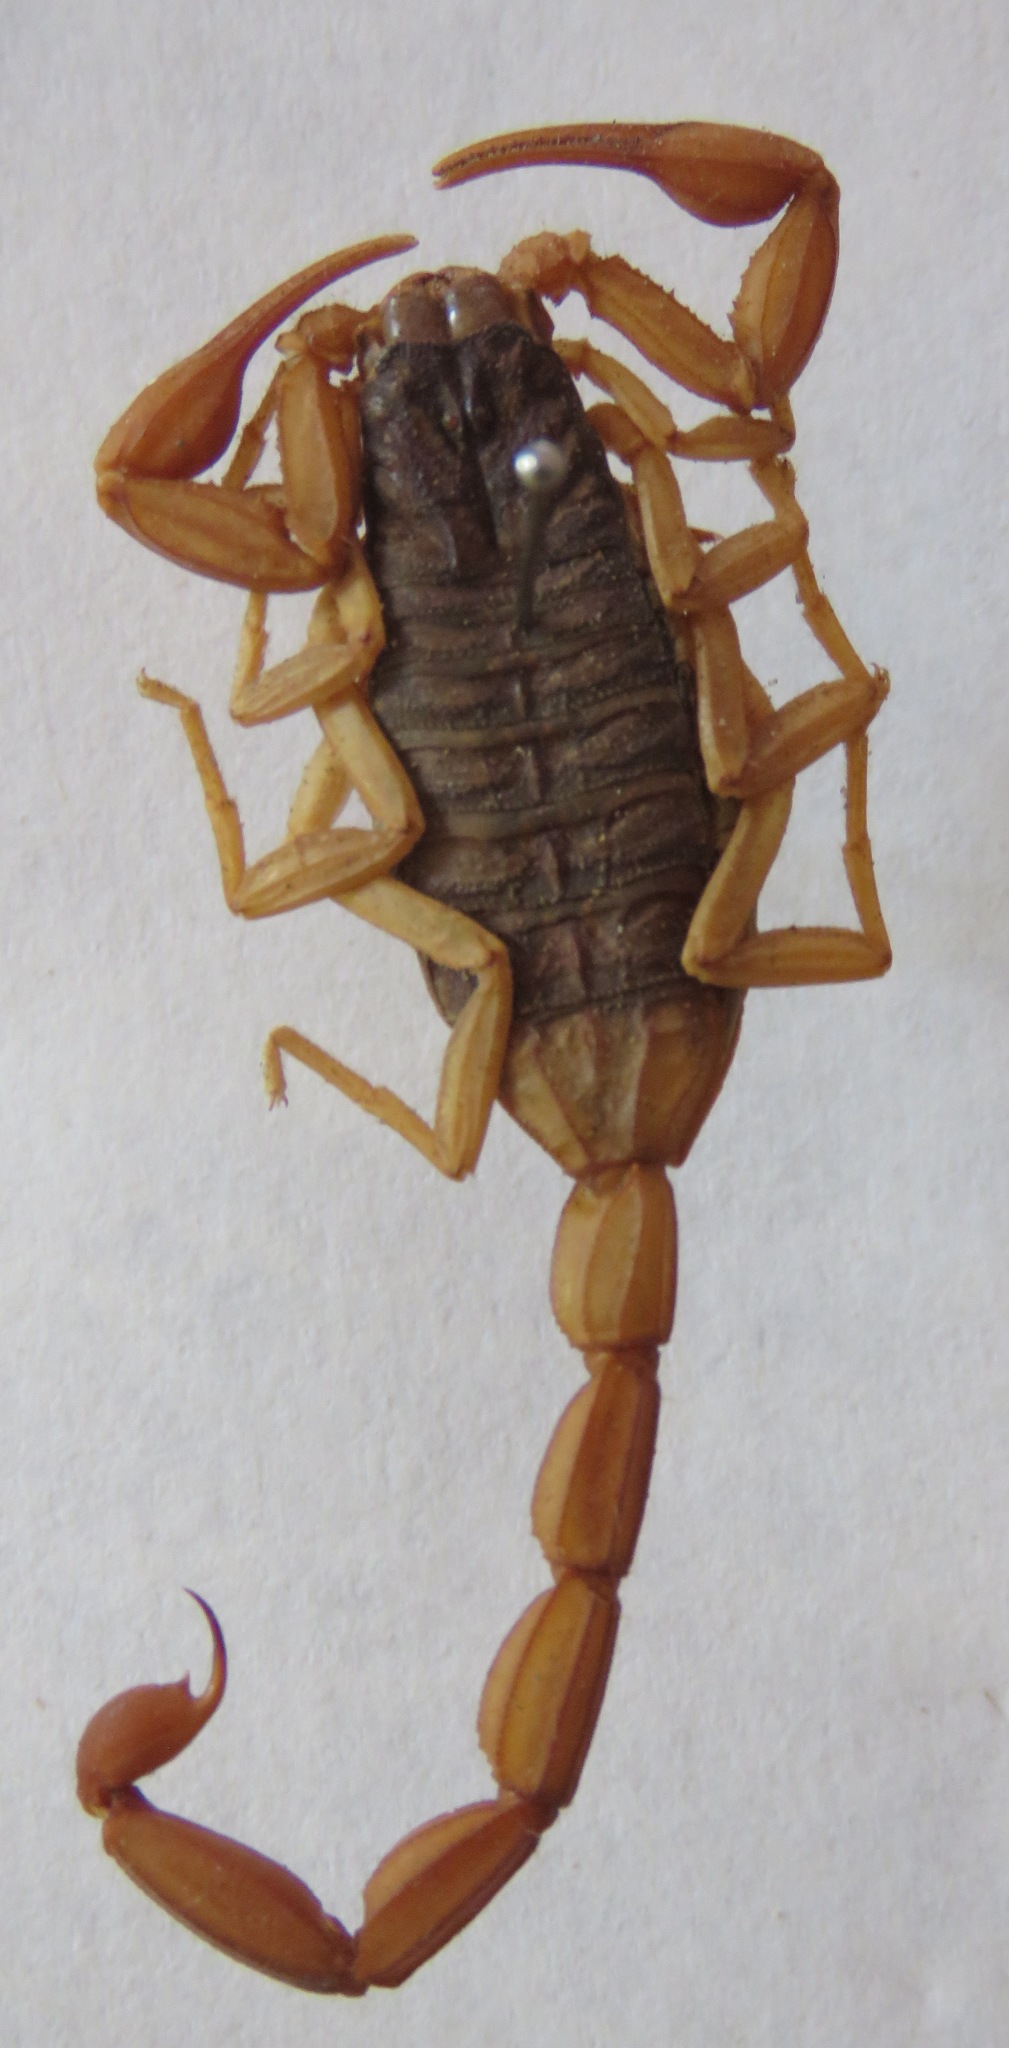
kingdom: Animalia
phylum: Arthropoda
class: Arachnida
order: Scorpiones
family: Buthidae
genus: Centruroides
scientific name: Centruroides ochraceus
